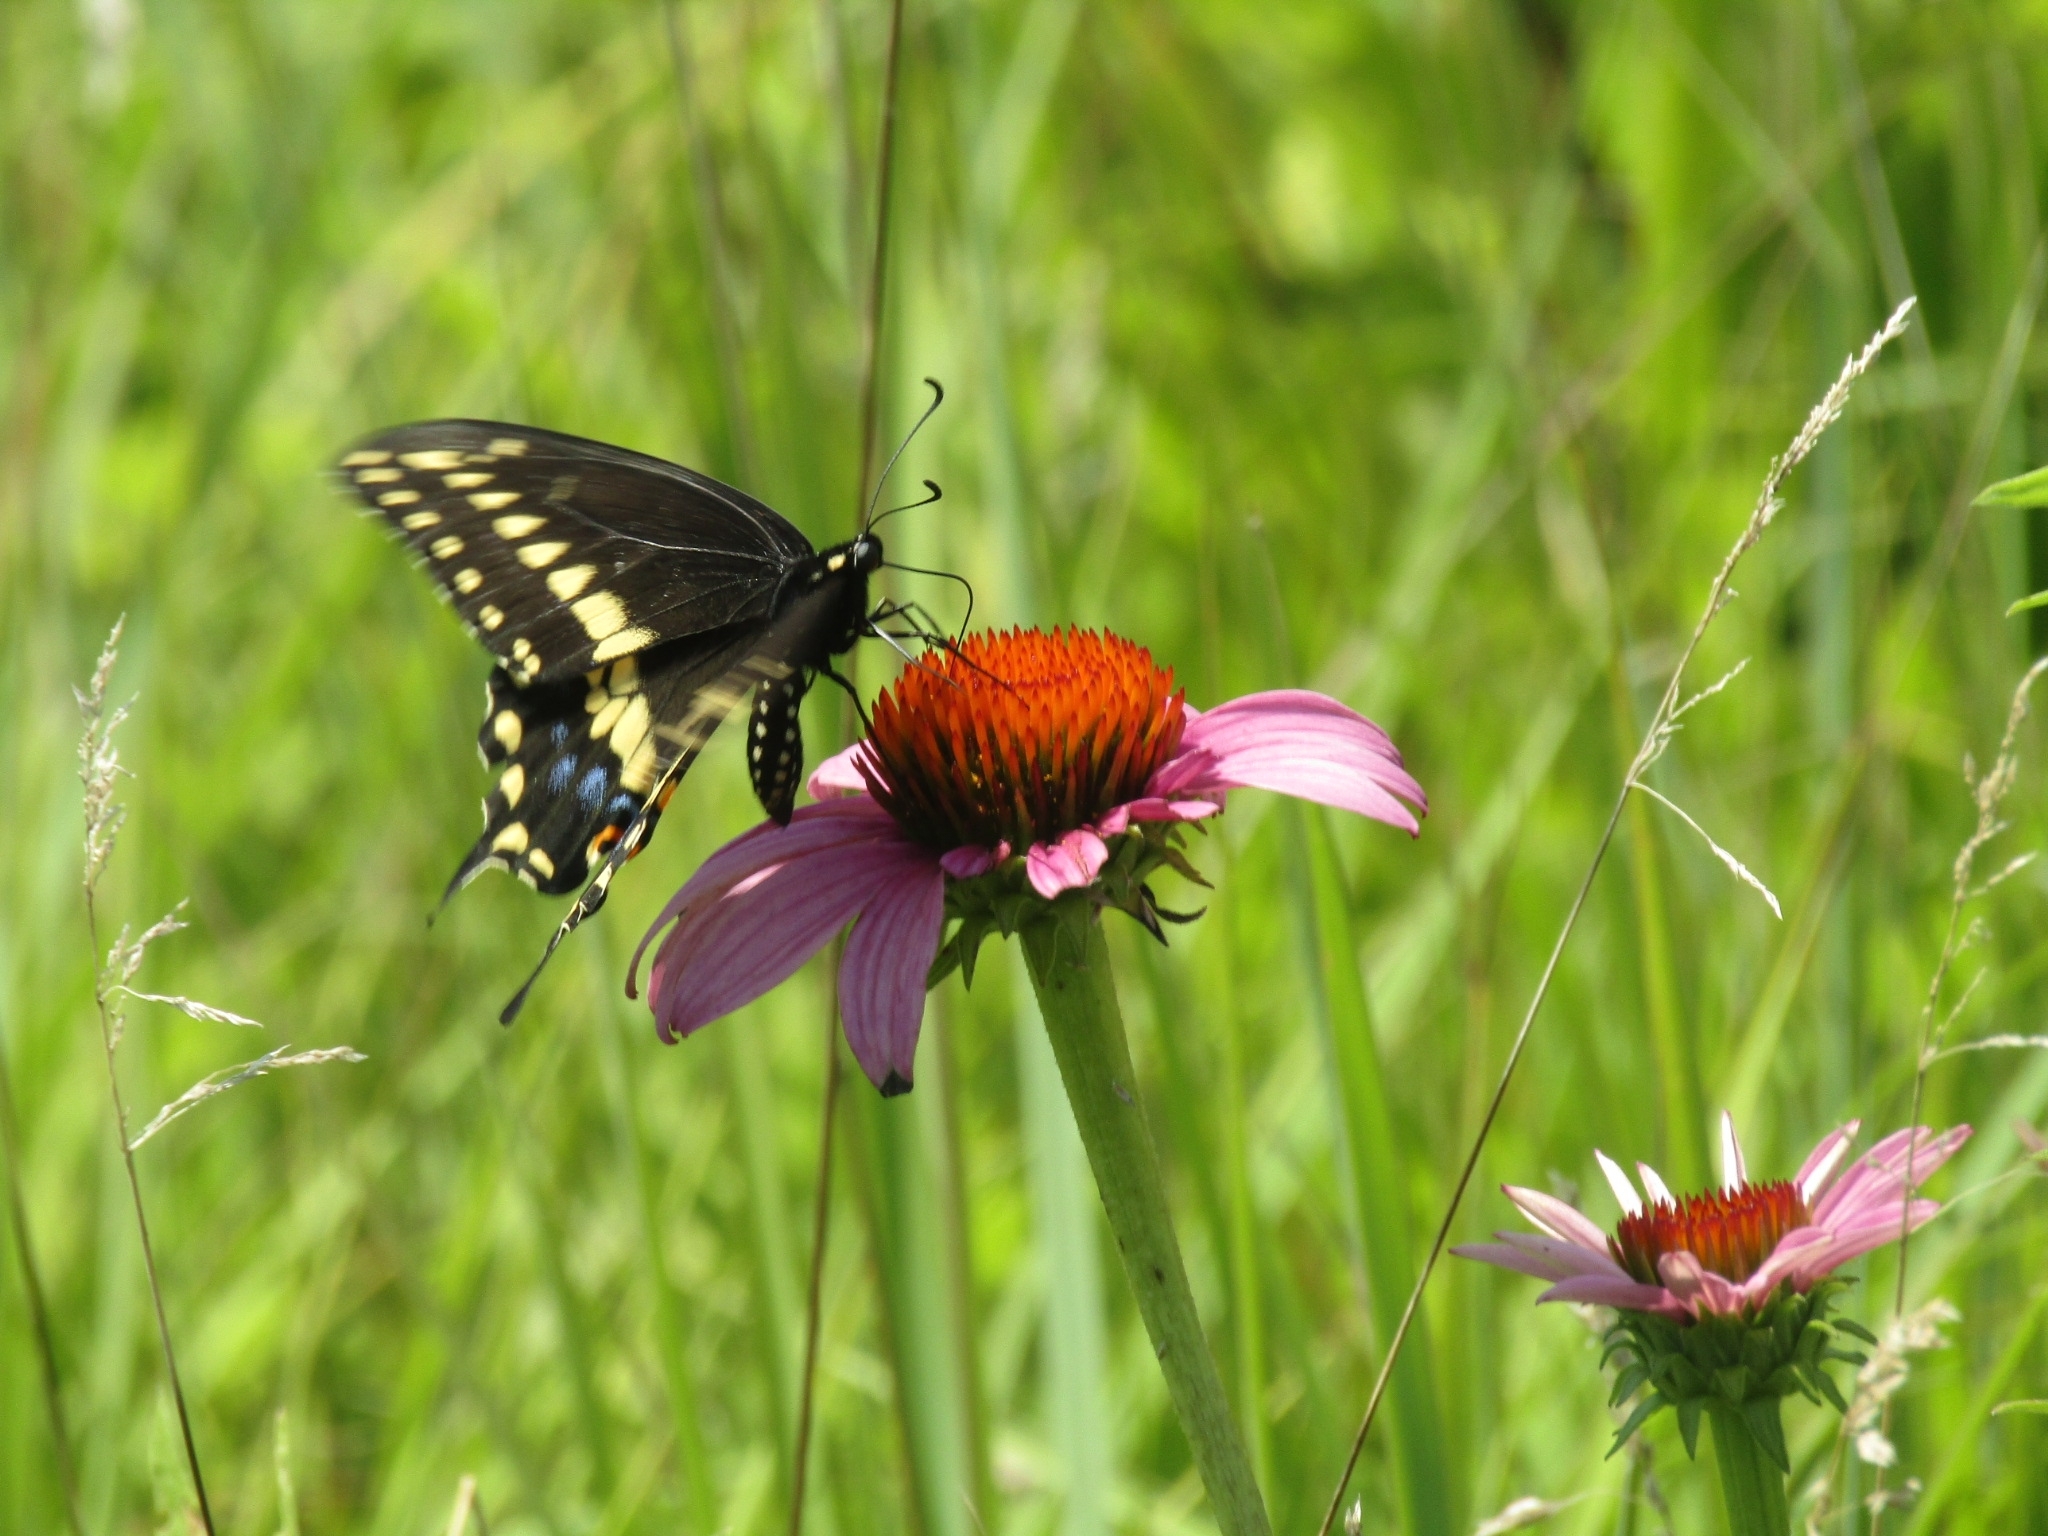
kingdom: Animalia
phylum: Arthropoda
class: Insecta
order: Lepidoptera
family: Papilionidae
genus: Papilio
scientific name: Papilio polyxenes
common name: Black swallowtail
